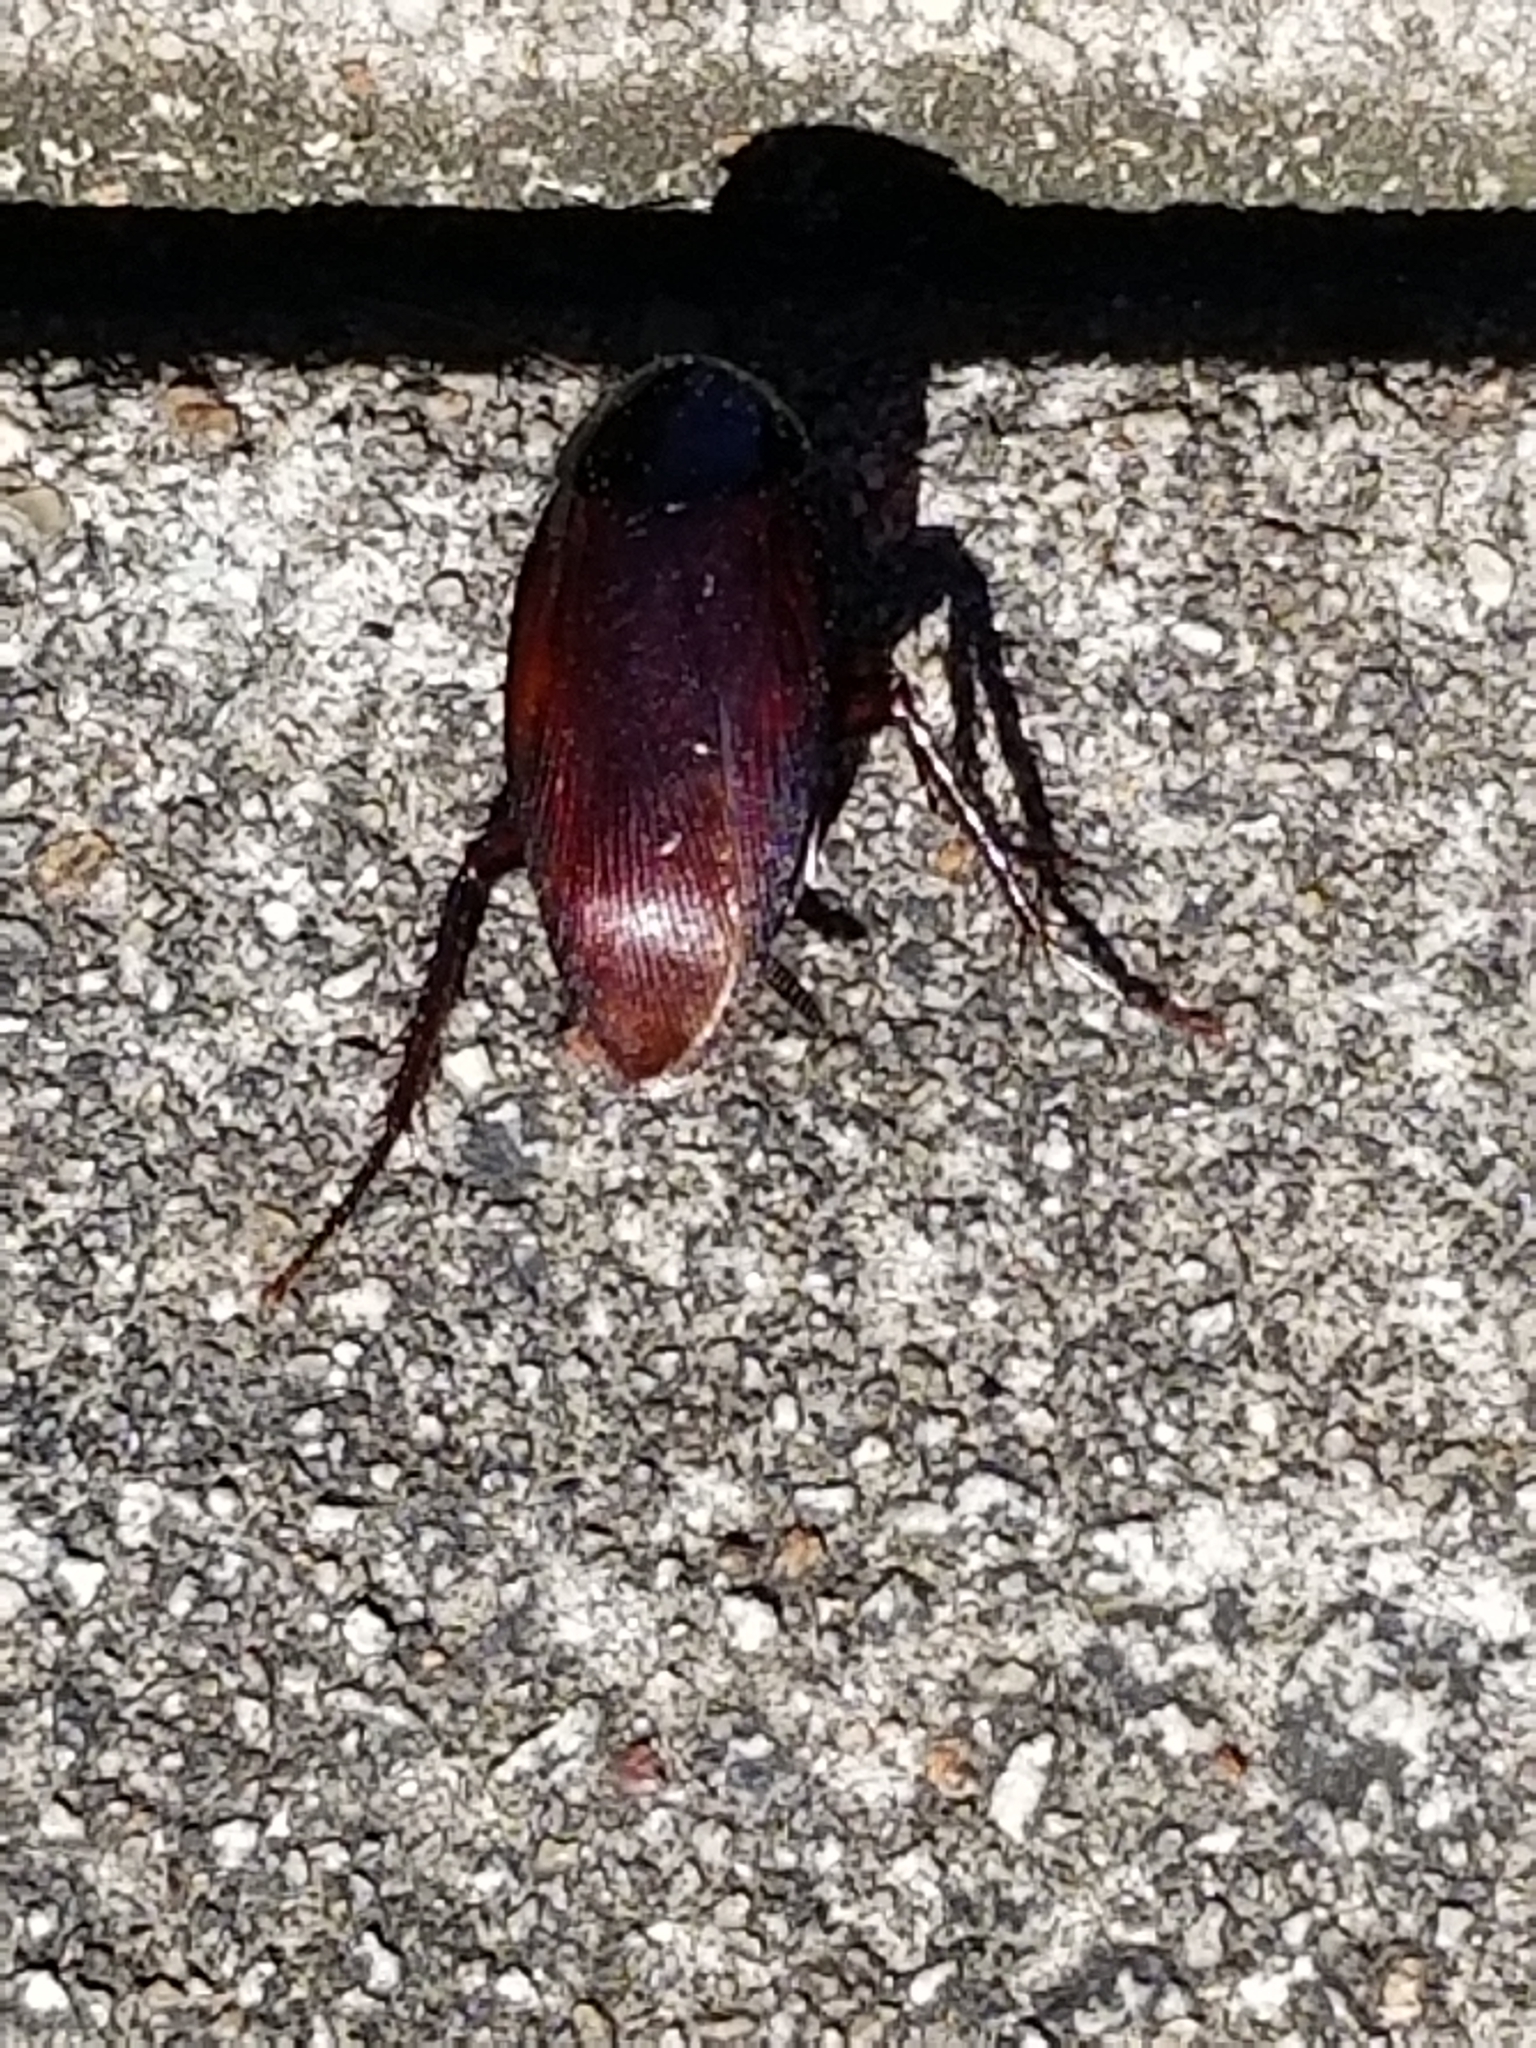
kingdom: Animalia
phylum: Arthropoda
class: Insecta
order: Blattodea
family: Blattidae
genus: Periplaneta
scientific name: Periplaneta fuliginosa
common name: Smokeybrown cockroad
